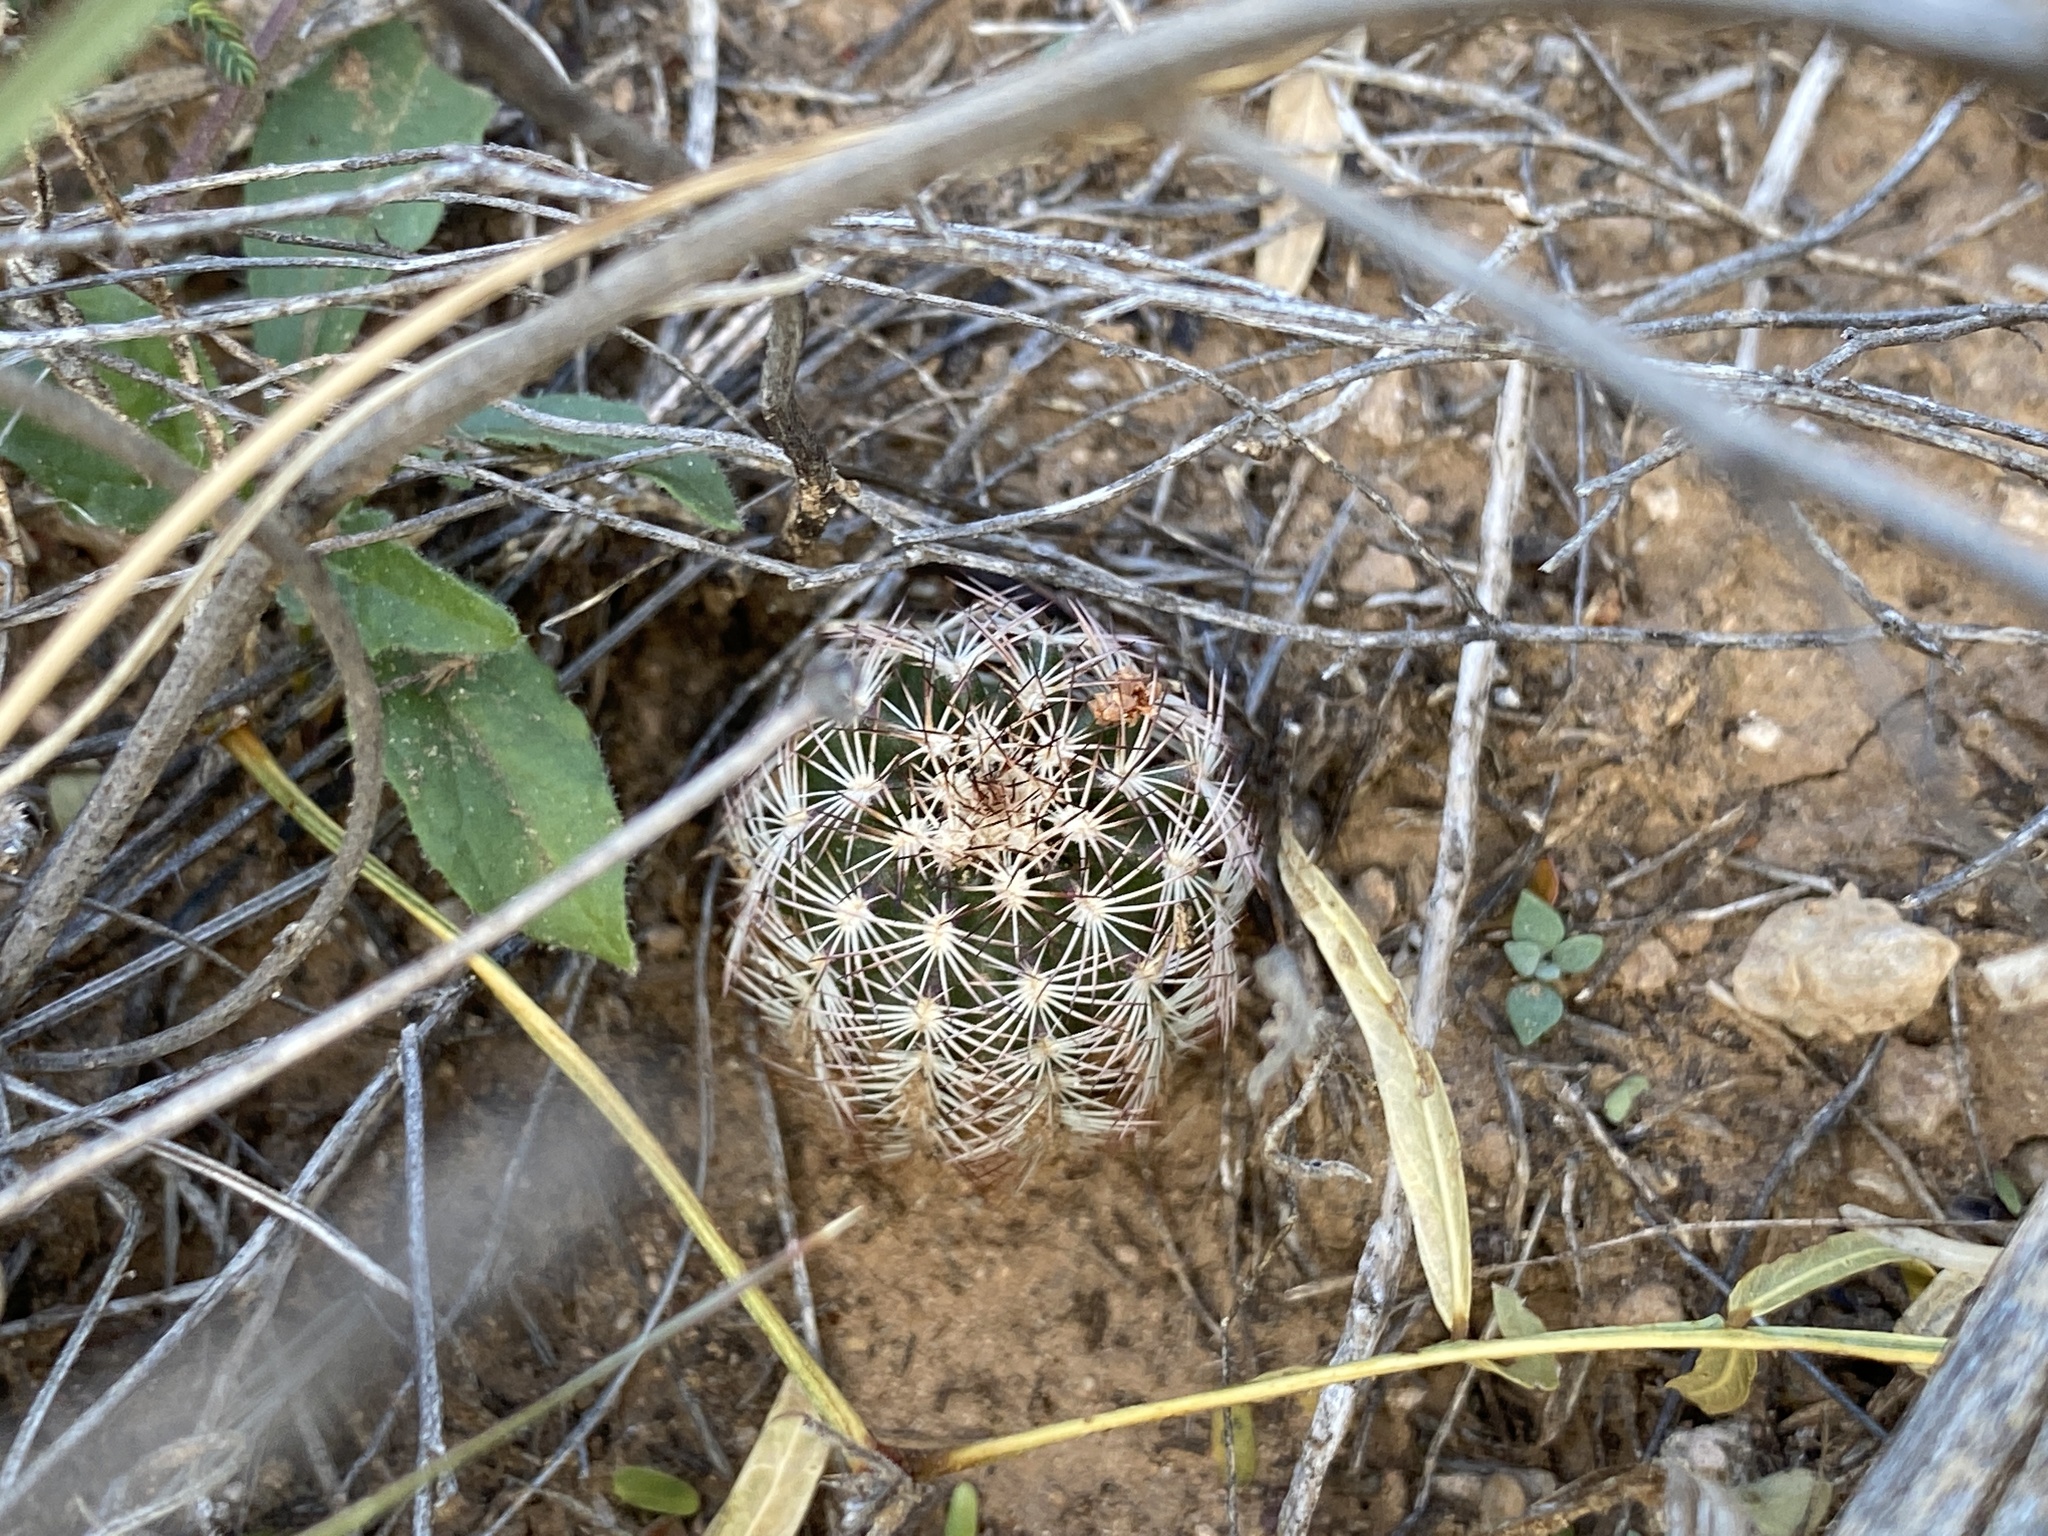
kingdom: Plantae
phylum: Tracheophyta
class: Magnoliopsida
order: Caryophyllales
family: Cactaceae
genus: Echinocereus
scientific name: Echinocereus reichenbachii
